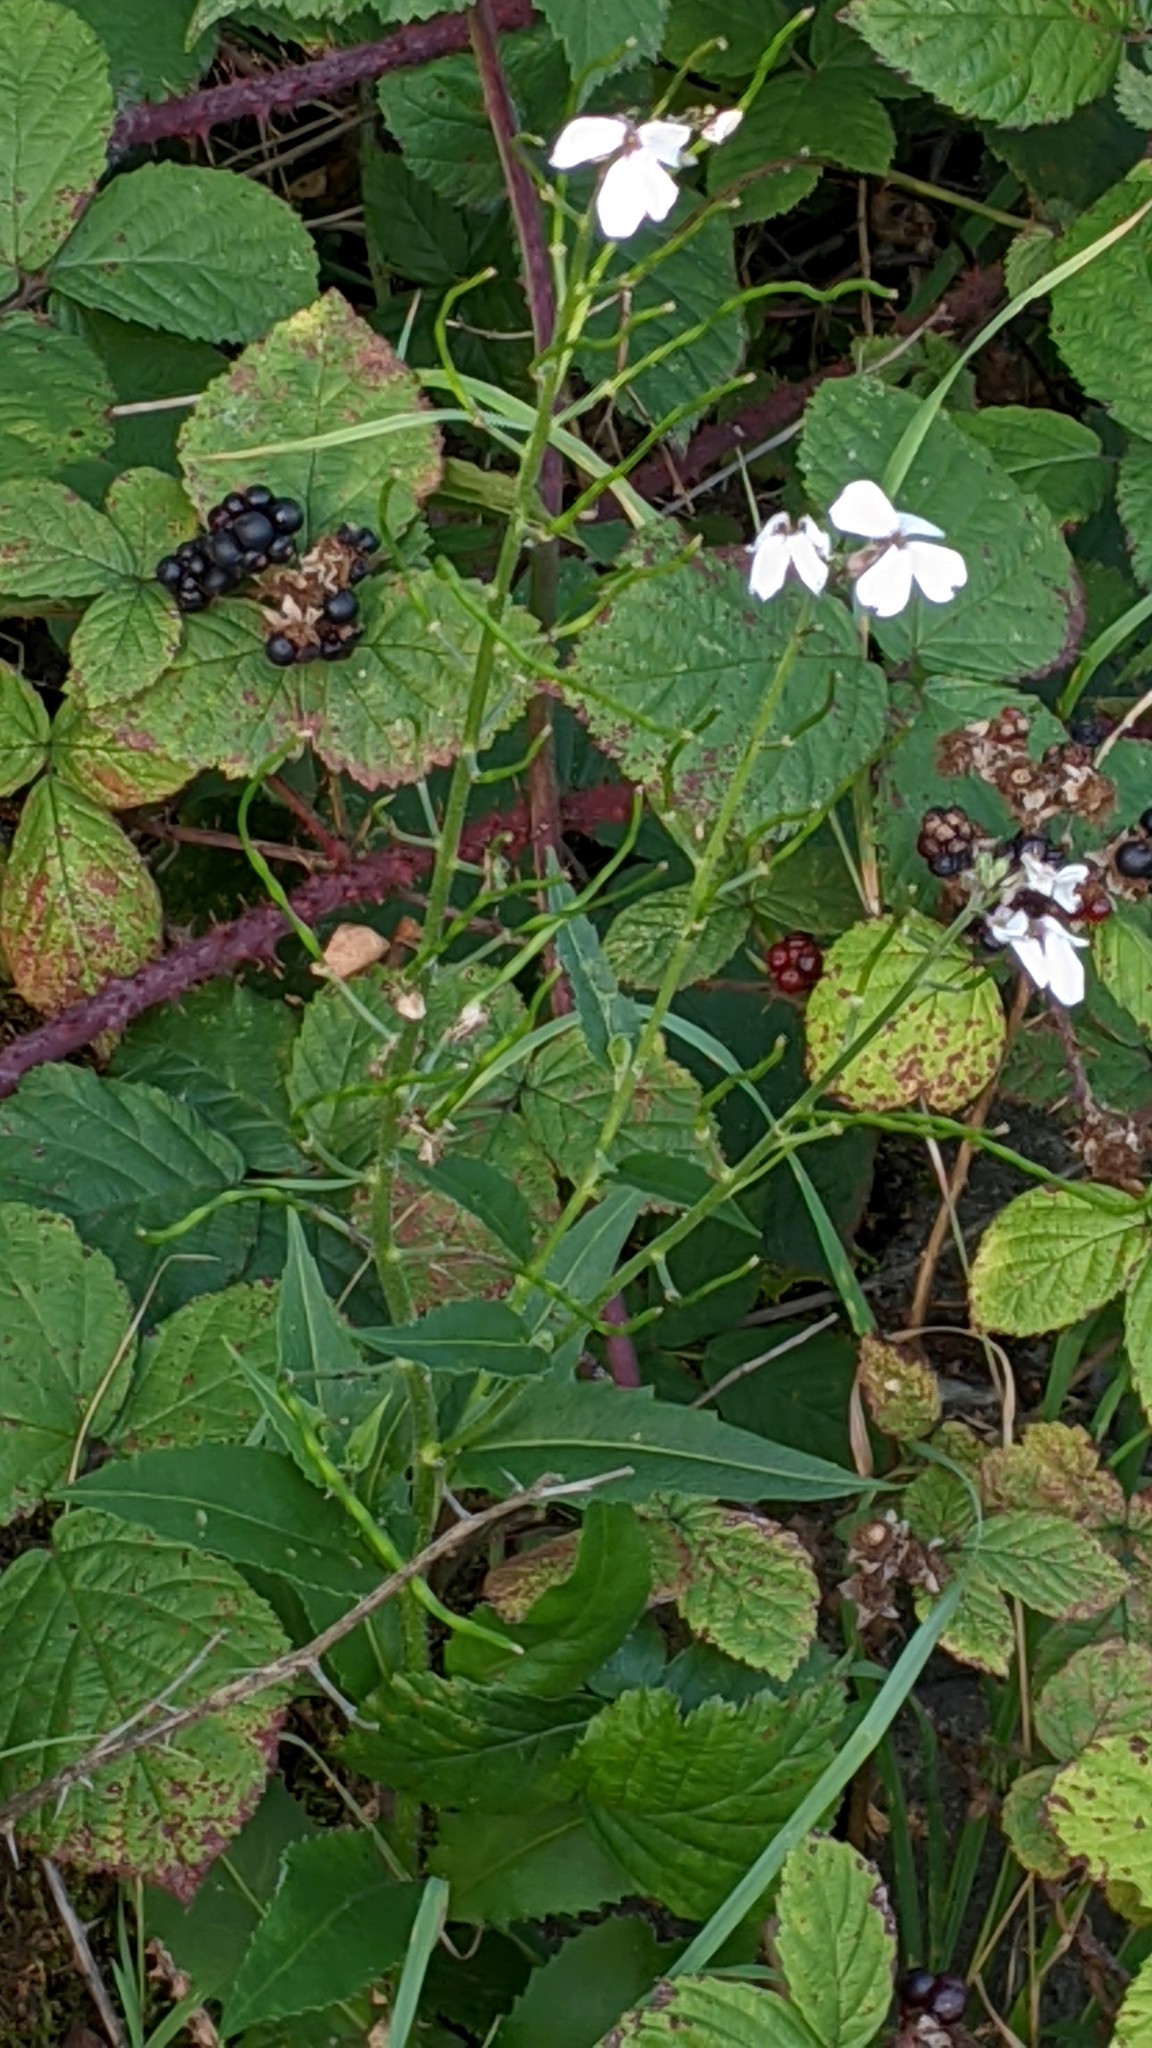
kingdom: Plantae
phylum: Tracheophyta
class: Magnoliopsida
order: Brassicales
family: Brassicaceae
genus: Hesperis
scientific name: Hesperis matronalis
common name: Dame's-violet
